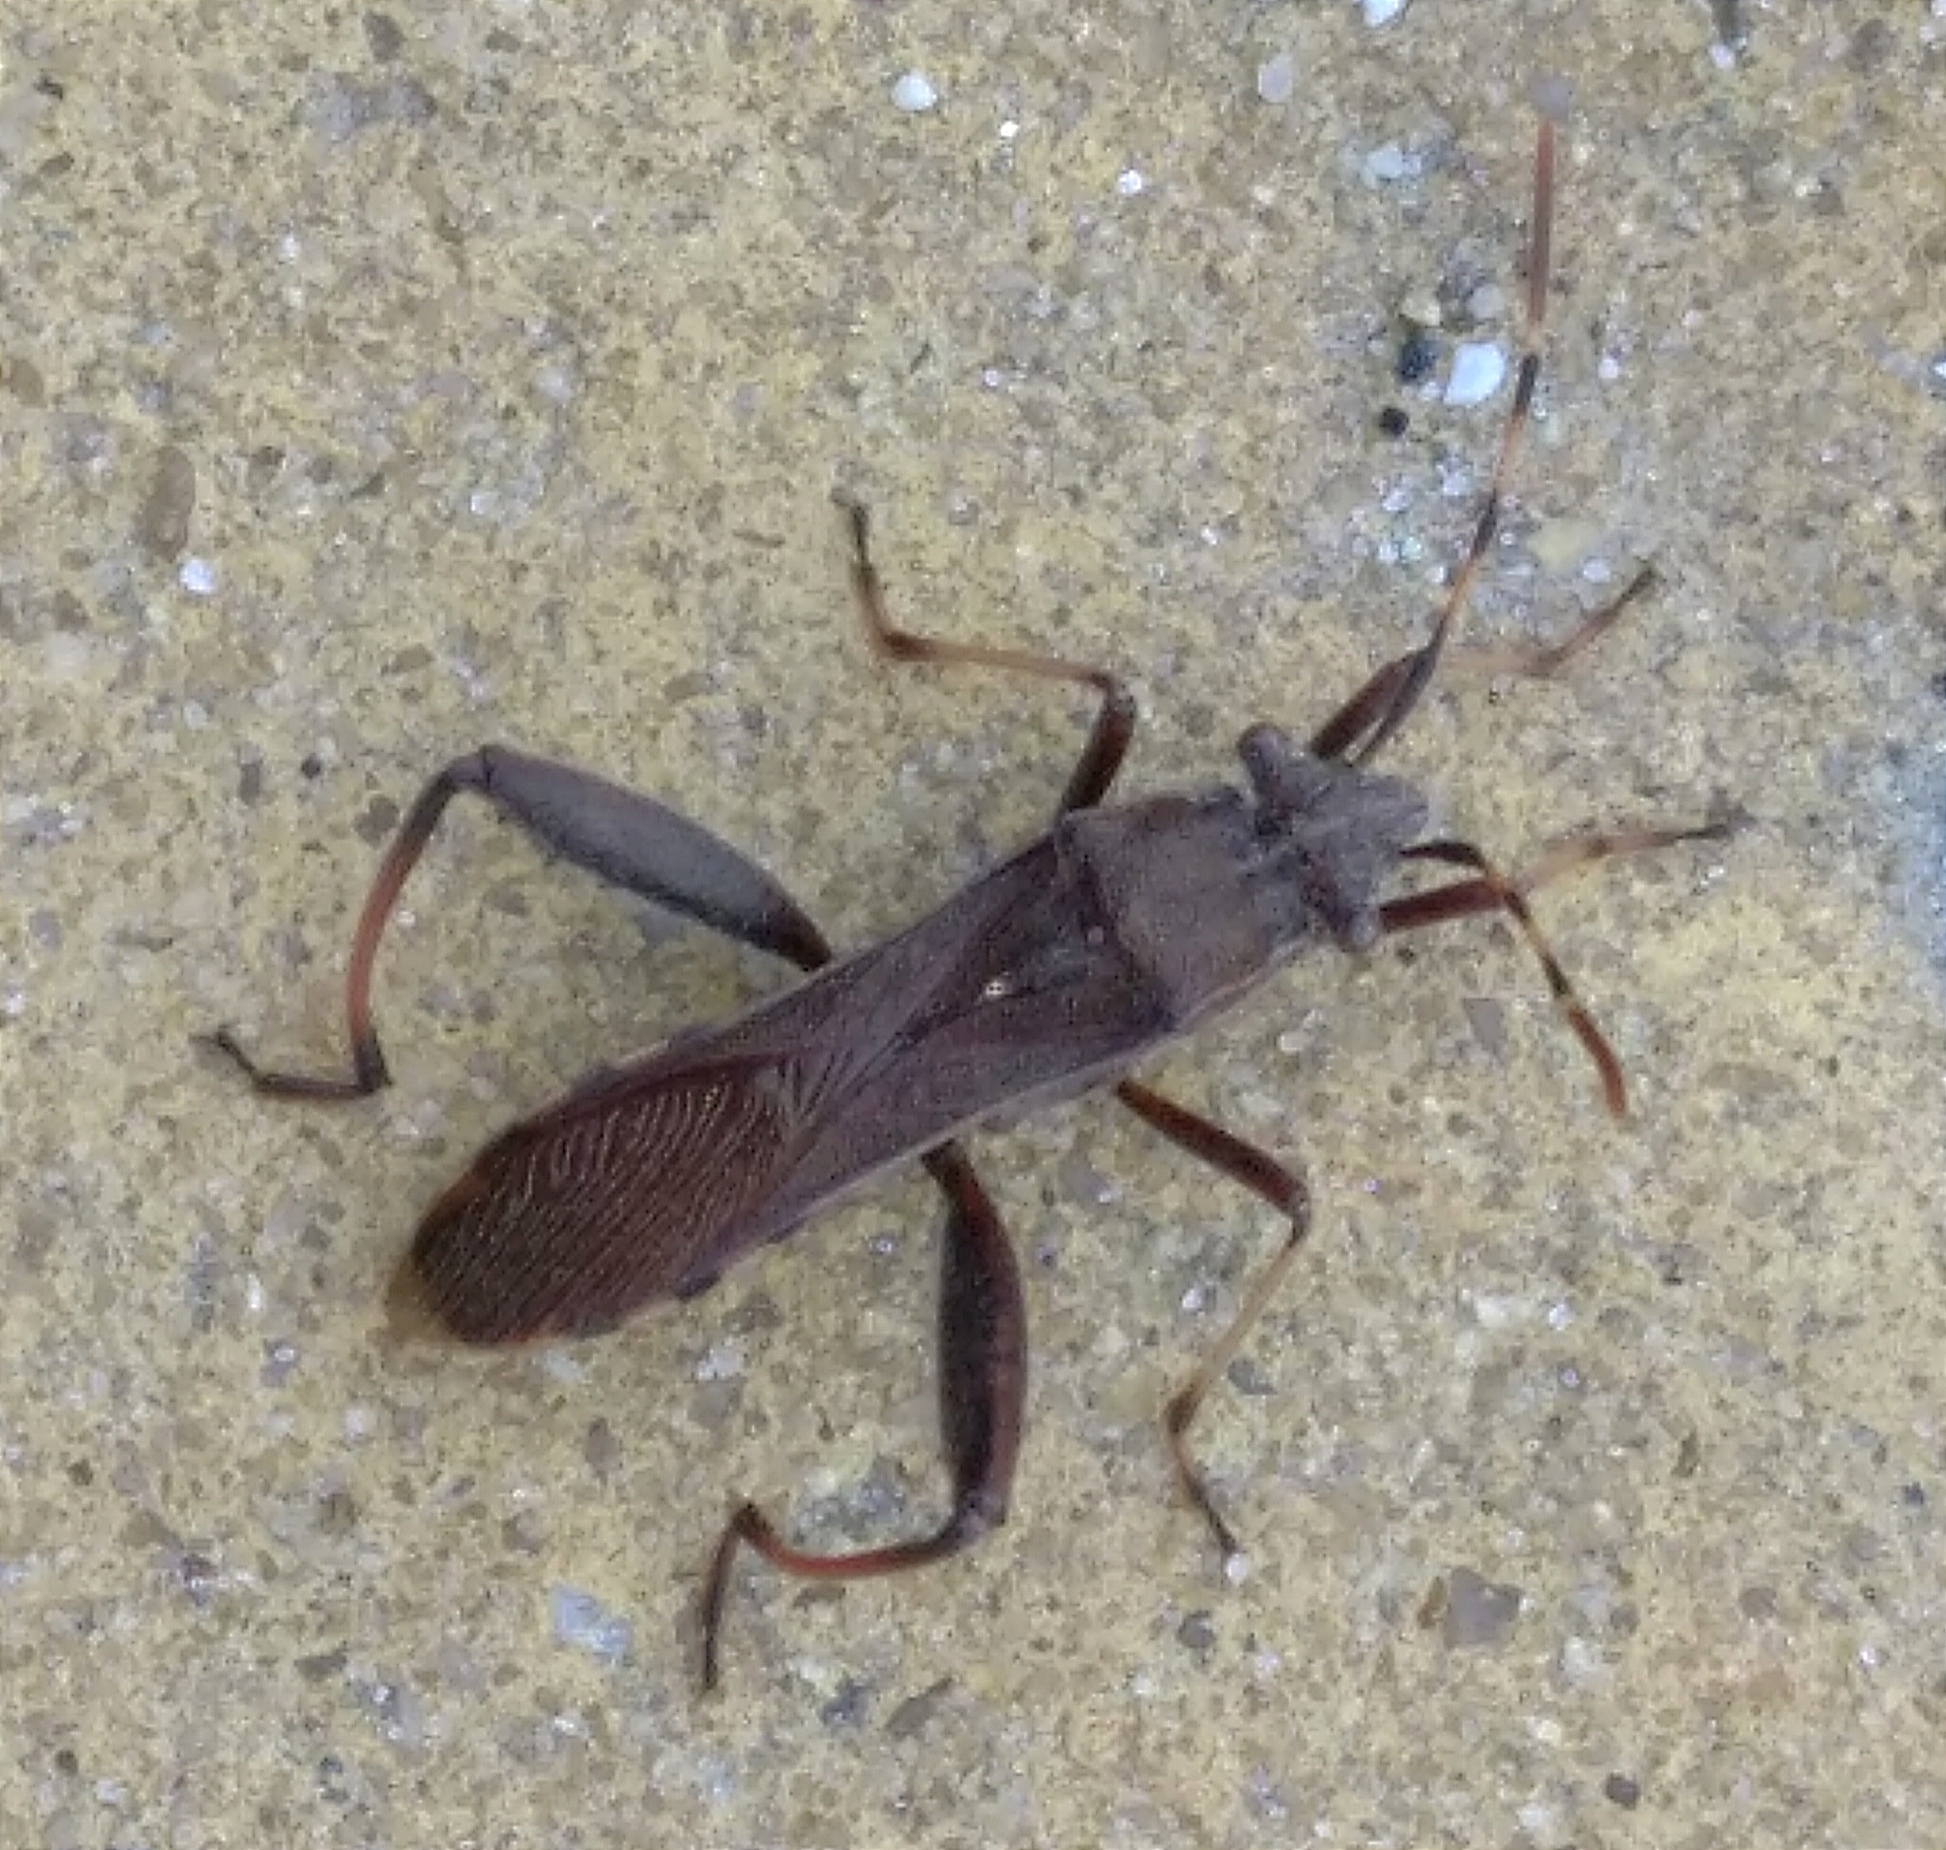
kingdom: Animalia
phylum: Arthropoda
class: Insecta
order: Hemiptera
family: Alydidae
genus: Camptopus
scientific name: Camptopus lateralis
